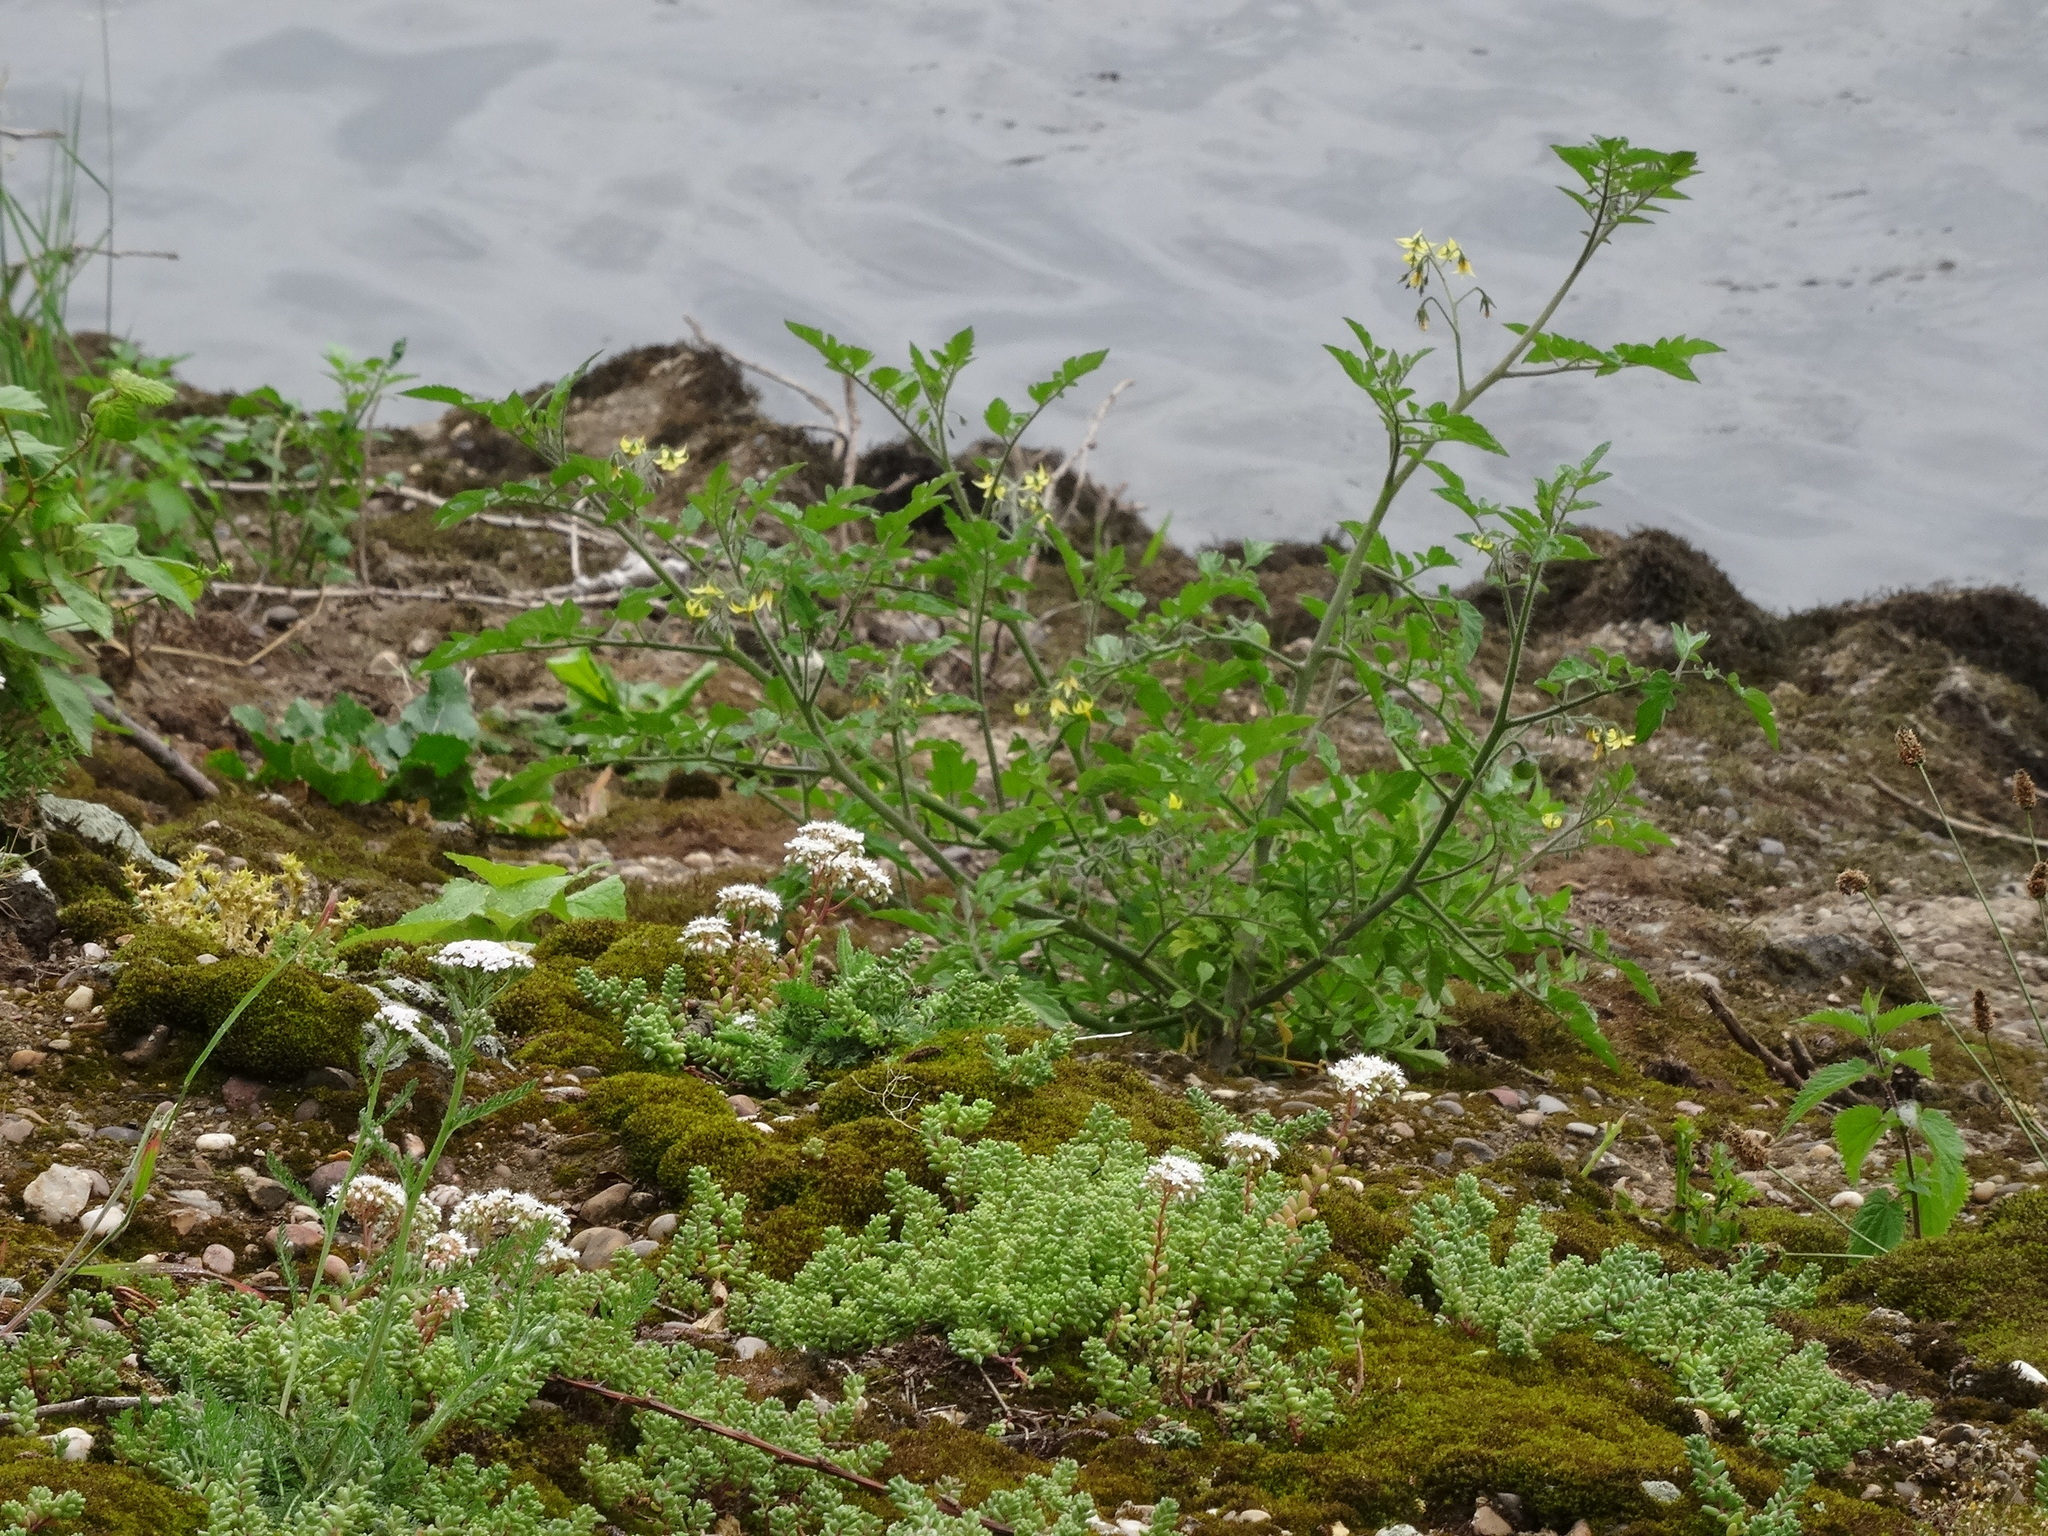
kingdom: Plantae
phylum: Tracheophyta
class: Magnoliopsida
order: Solanales
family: Solanaceae
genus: Solanum
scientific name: Solanum lycopersicum
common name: Garden tomato
